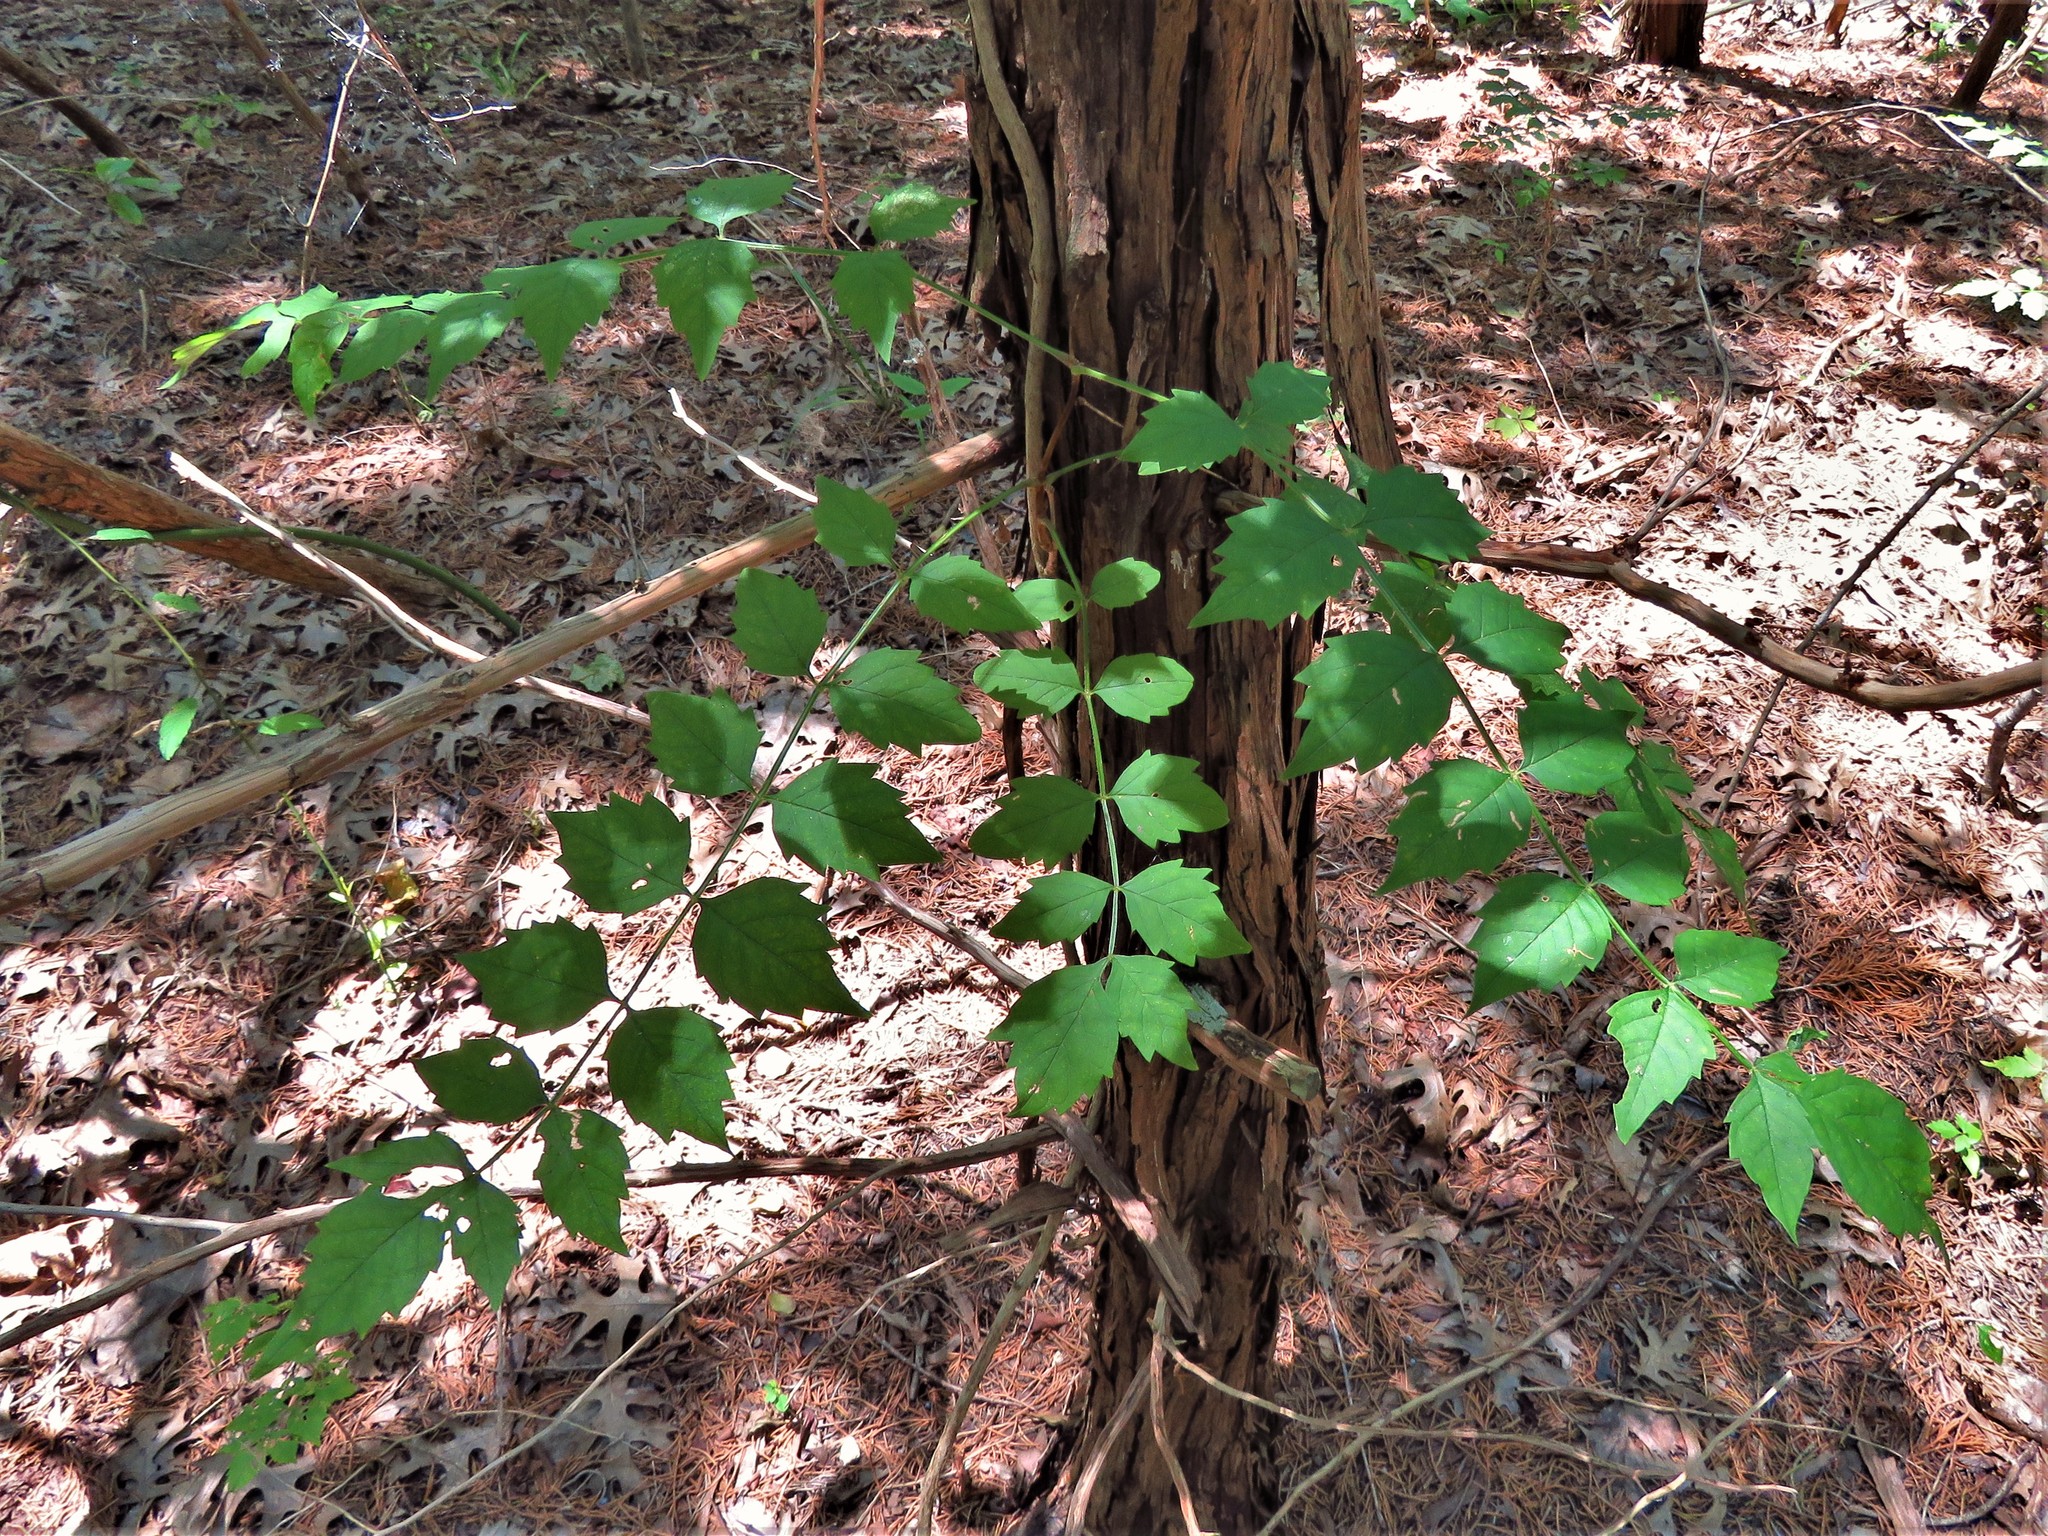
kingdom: Plantae
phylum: Tracheophyta
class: Magnoliopsida
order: Lamiales
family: Bignoniaceae
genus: Campsis
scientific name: Campsis radicans
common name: Trumpet-creeper
